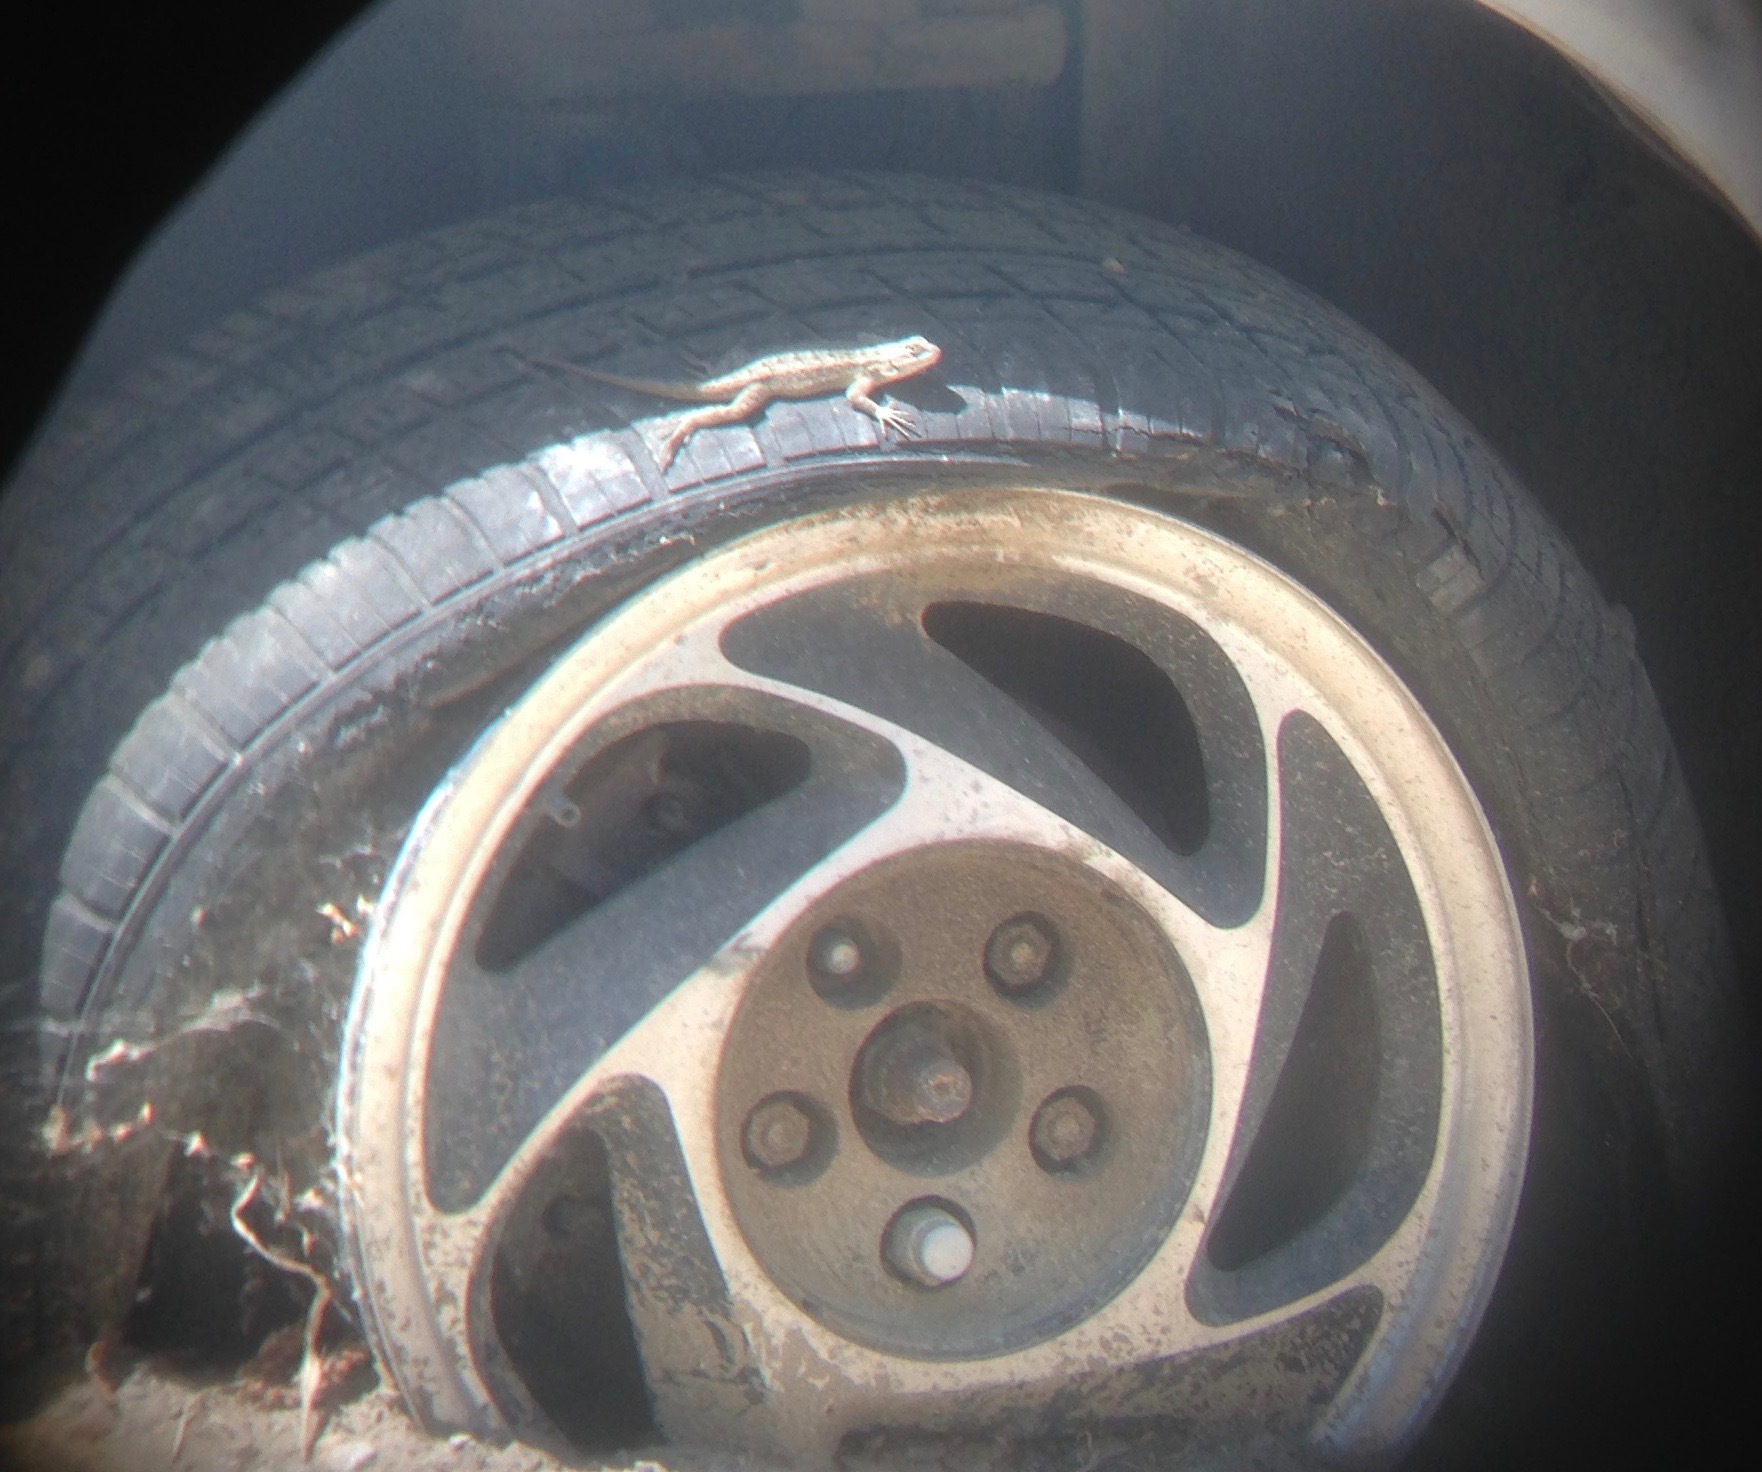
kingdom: Animalia
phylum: Chordata
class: Squamata
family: Phrynosomatidae
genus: Sceloporus
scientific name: Sceloporus occidentalis
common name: Western fence lizard
